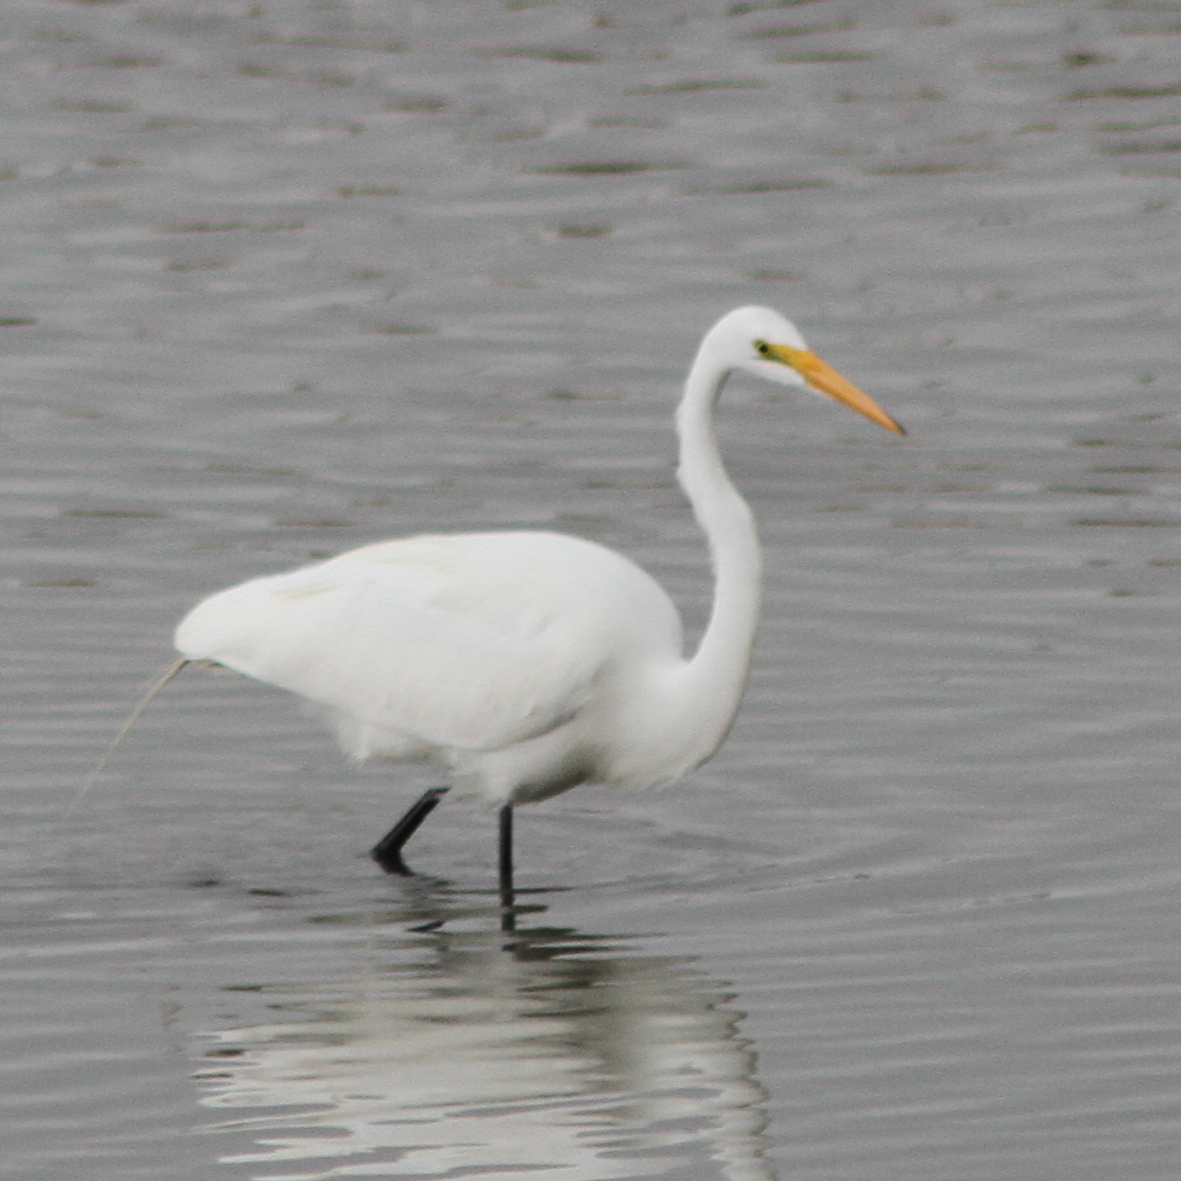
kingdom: Animalia
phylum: Chordata
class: Aves
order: Pelecaniformes
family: Ardeidae
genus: Ardea
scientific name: Ardea alba
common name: Great egret
